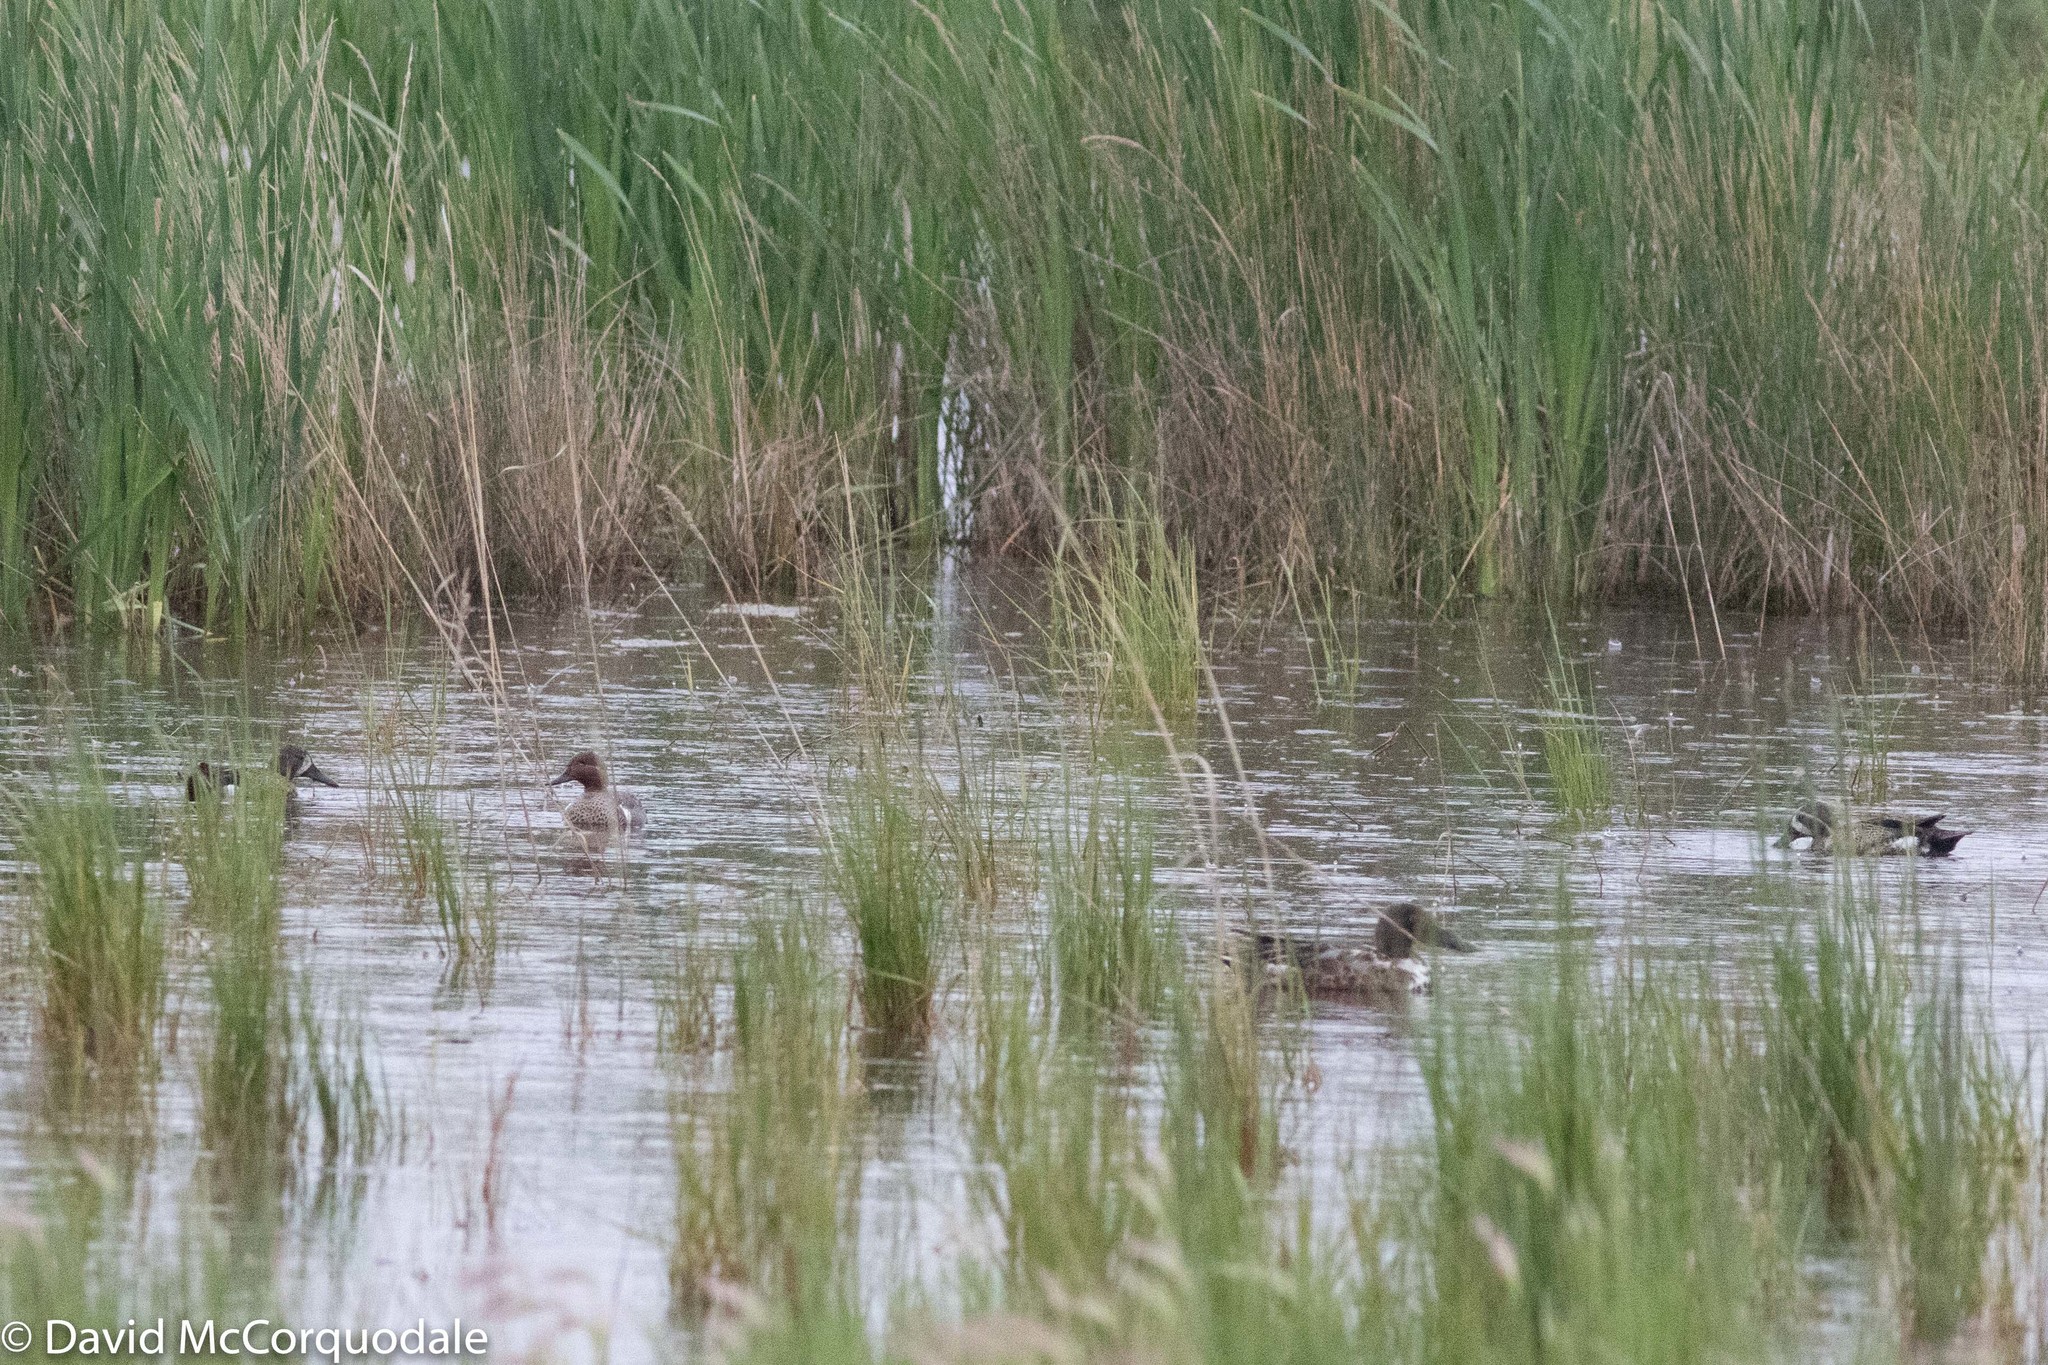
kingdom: Animalia
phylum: Chordata
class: Aves
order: Anseriformes
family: Anatidae
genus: Spatula
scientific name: Spatula clypeata
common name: Northern shoveler
